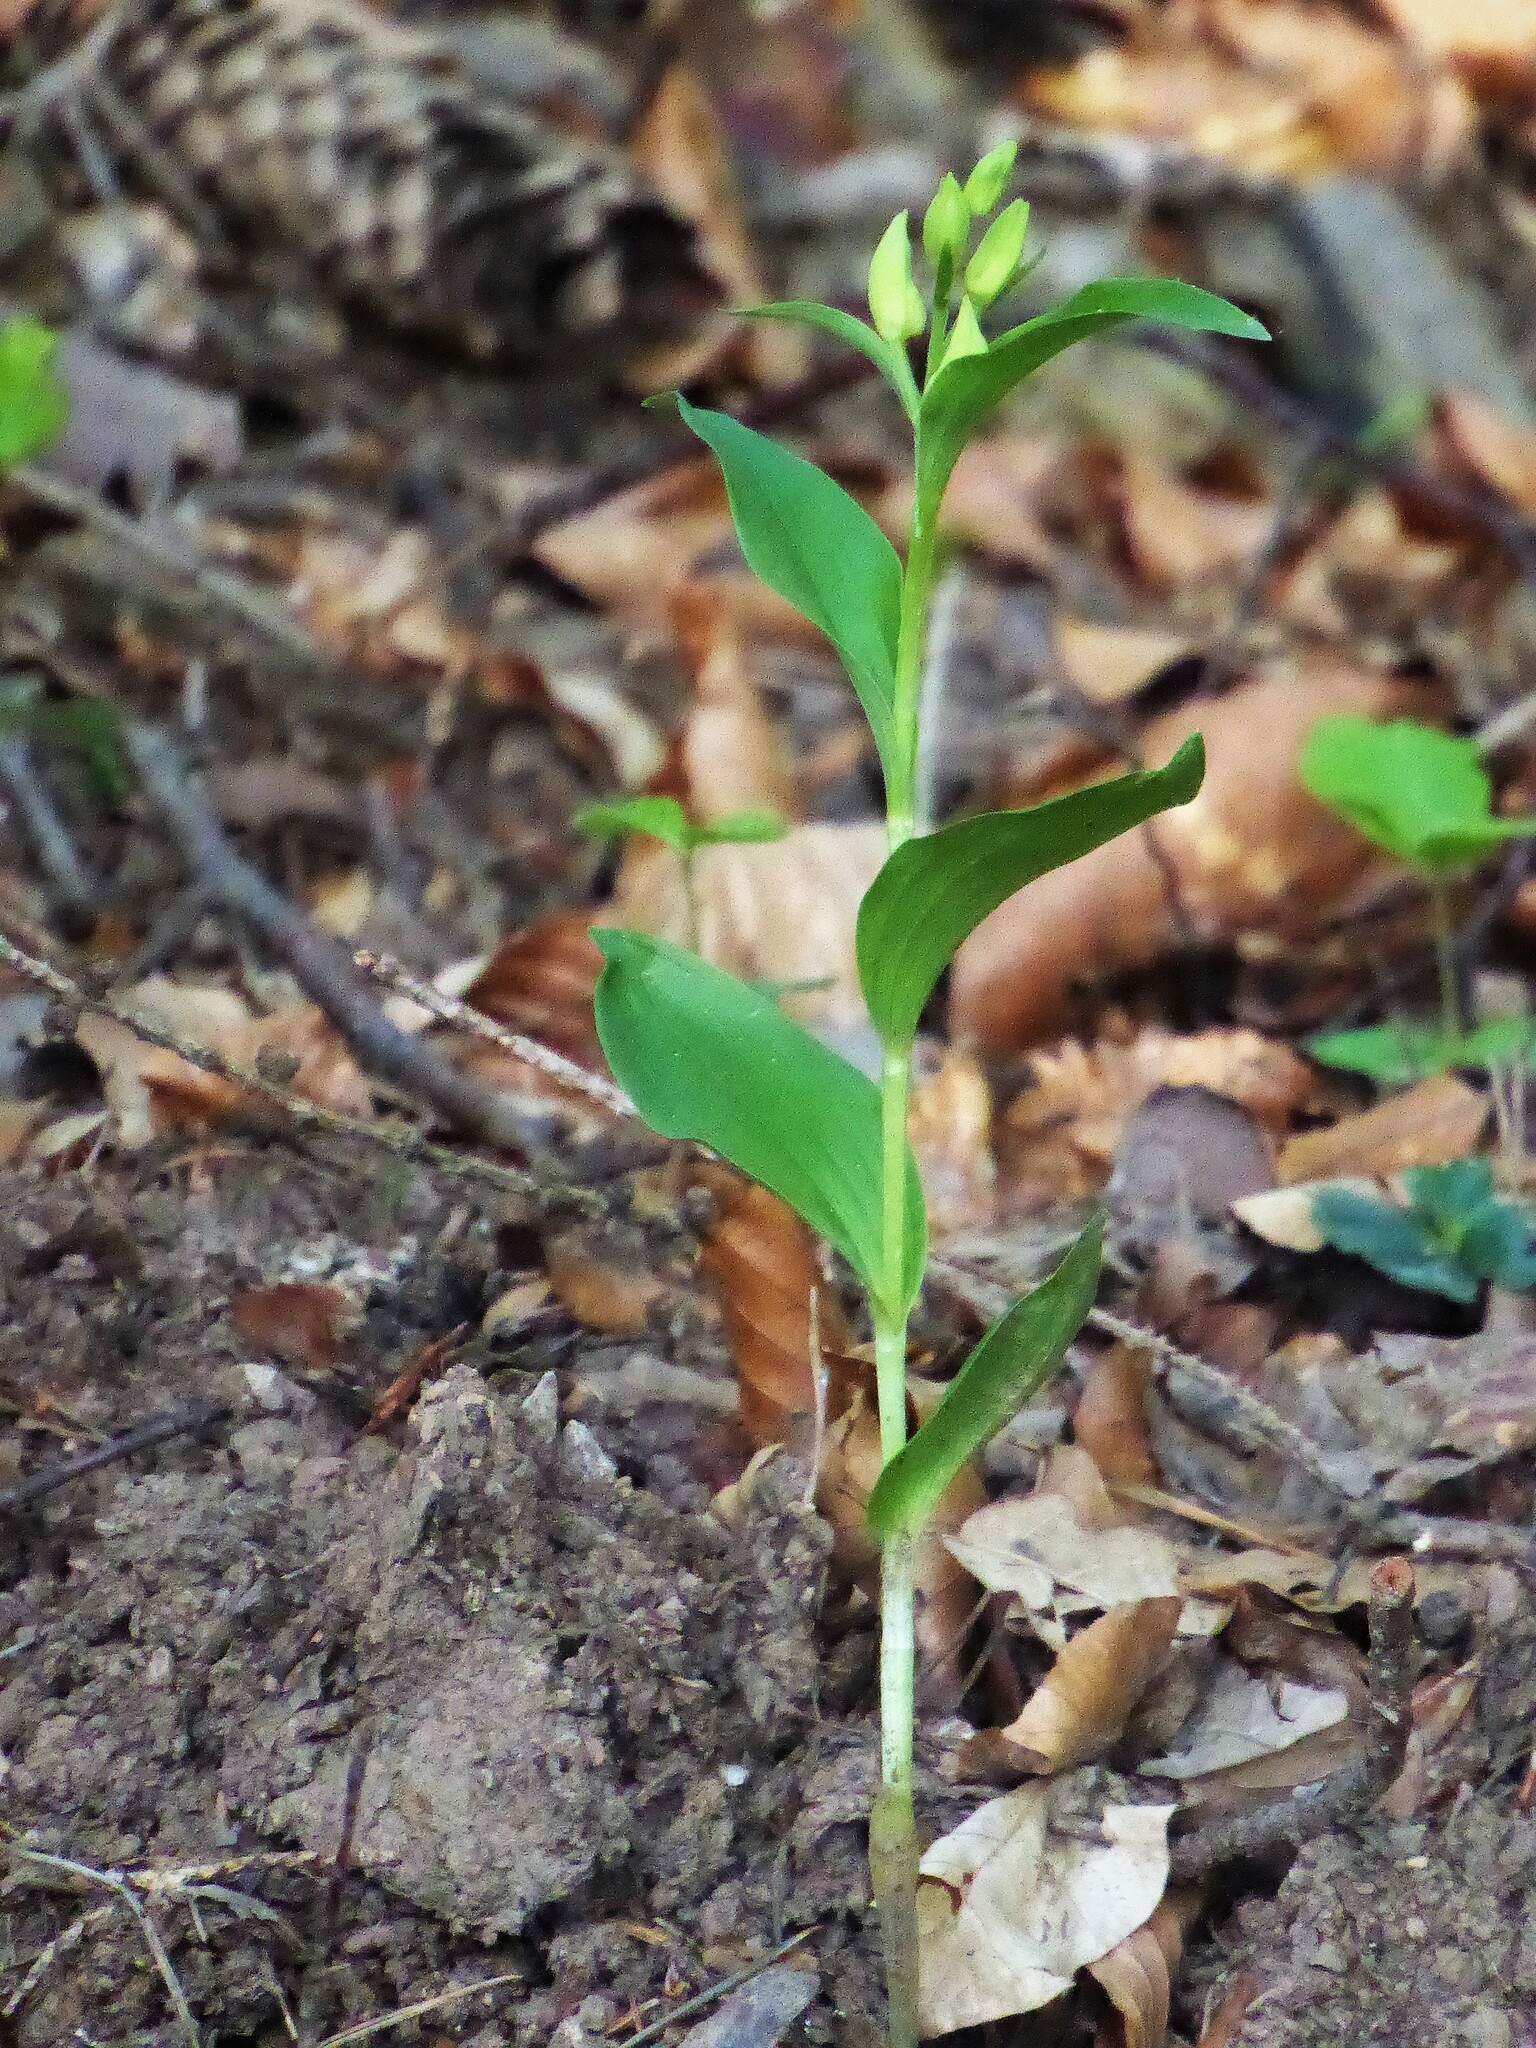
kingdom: Plantae
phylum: Tracheophyta
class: Liliopsida
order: Asparagales
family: Orchidaceae
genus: Cephalanthera
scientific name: Cephalanthera damasonium
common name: White helleborine
